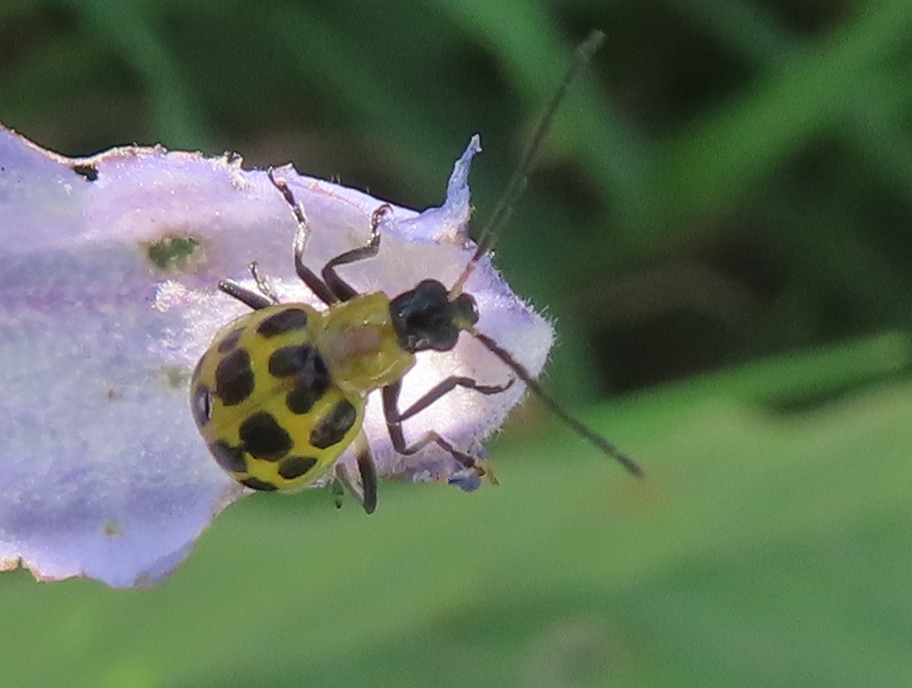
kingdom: Animalia
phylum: Arthropoda
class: Insecta
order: Coleoptera
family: Chrysomelidae
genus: Diabrotica
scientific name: Diabrotica undecimpunctata
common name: Spotted cucumber beetle
